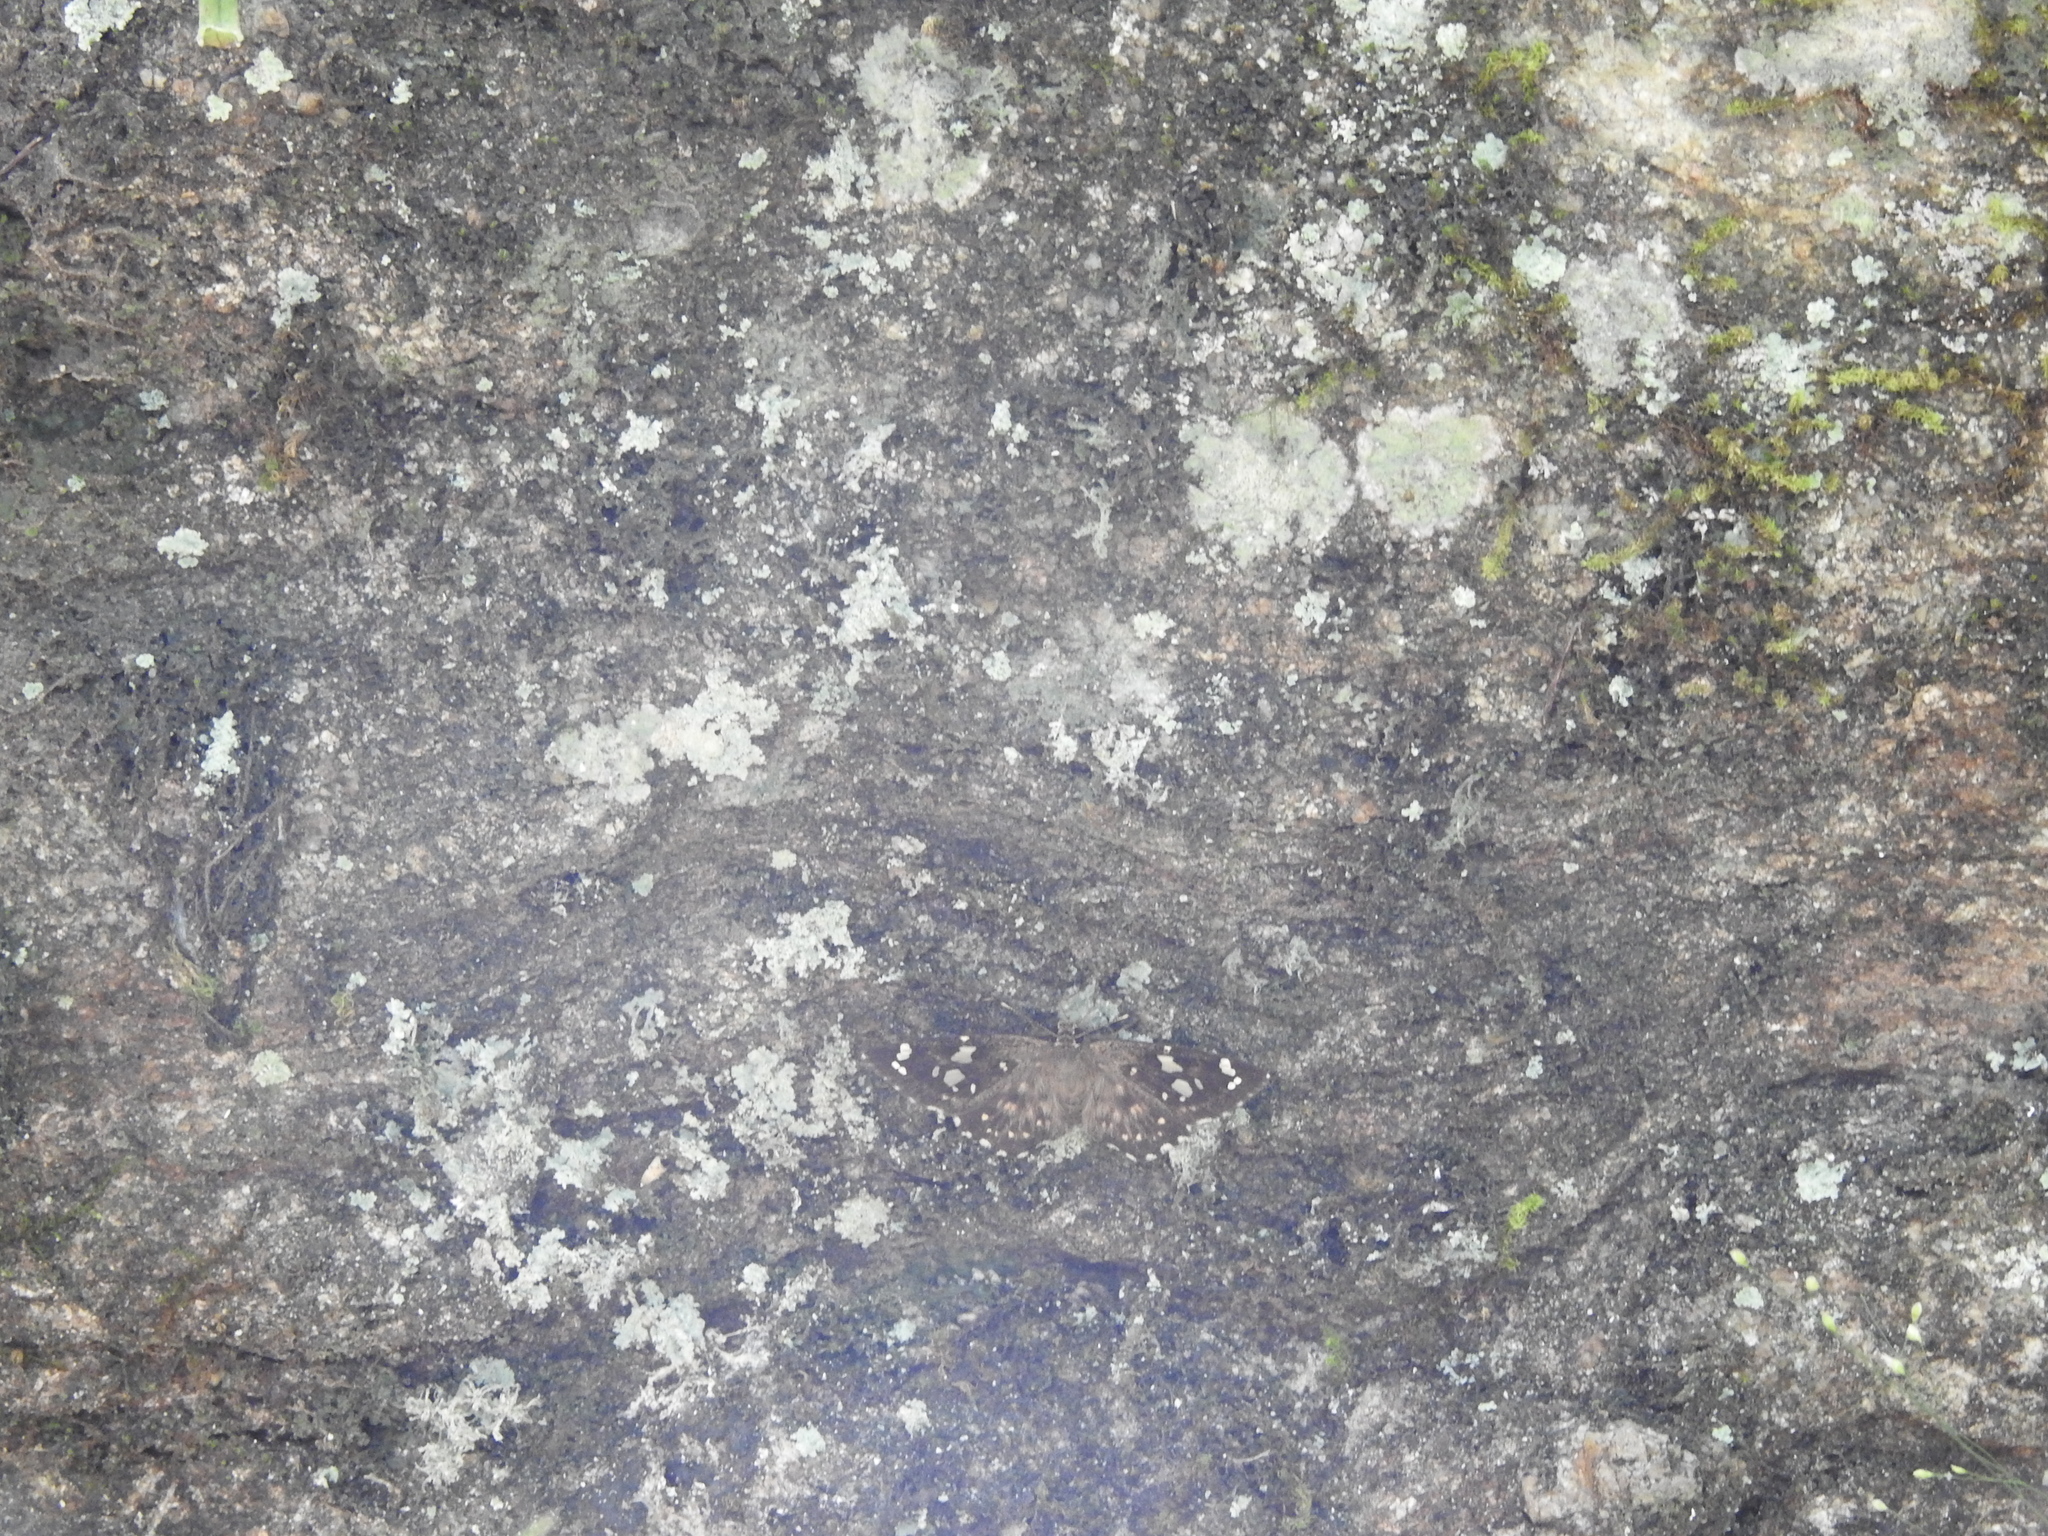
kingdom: Animalia
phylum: Arthropoda
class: Insecta
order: Lepidoptera
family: Hesperiidae
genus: Celaenorrhinus
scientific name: Celaenorrhinus ambareesa
